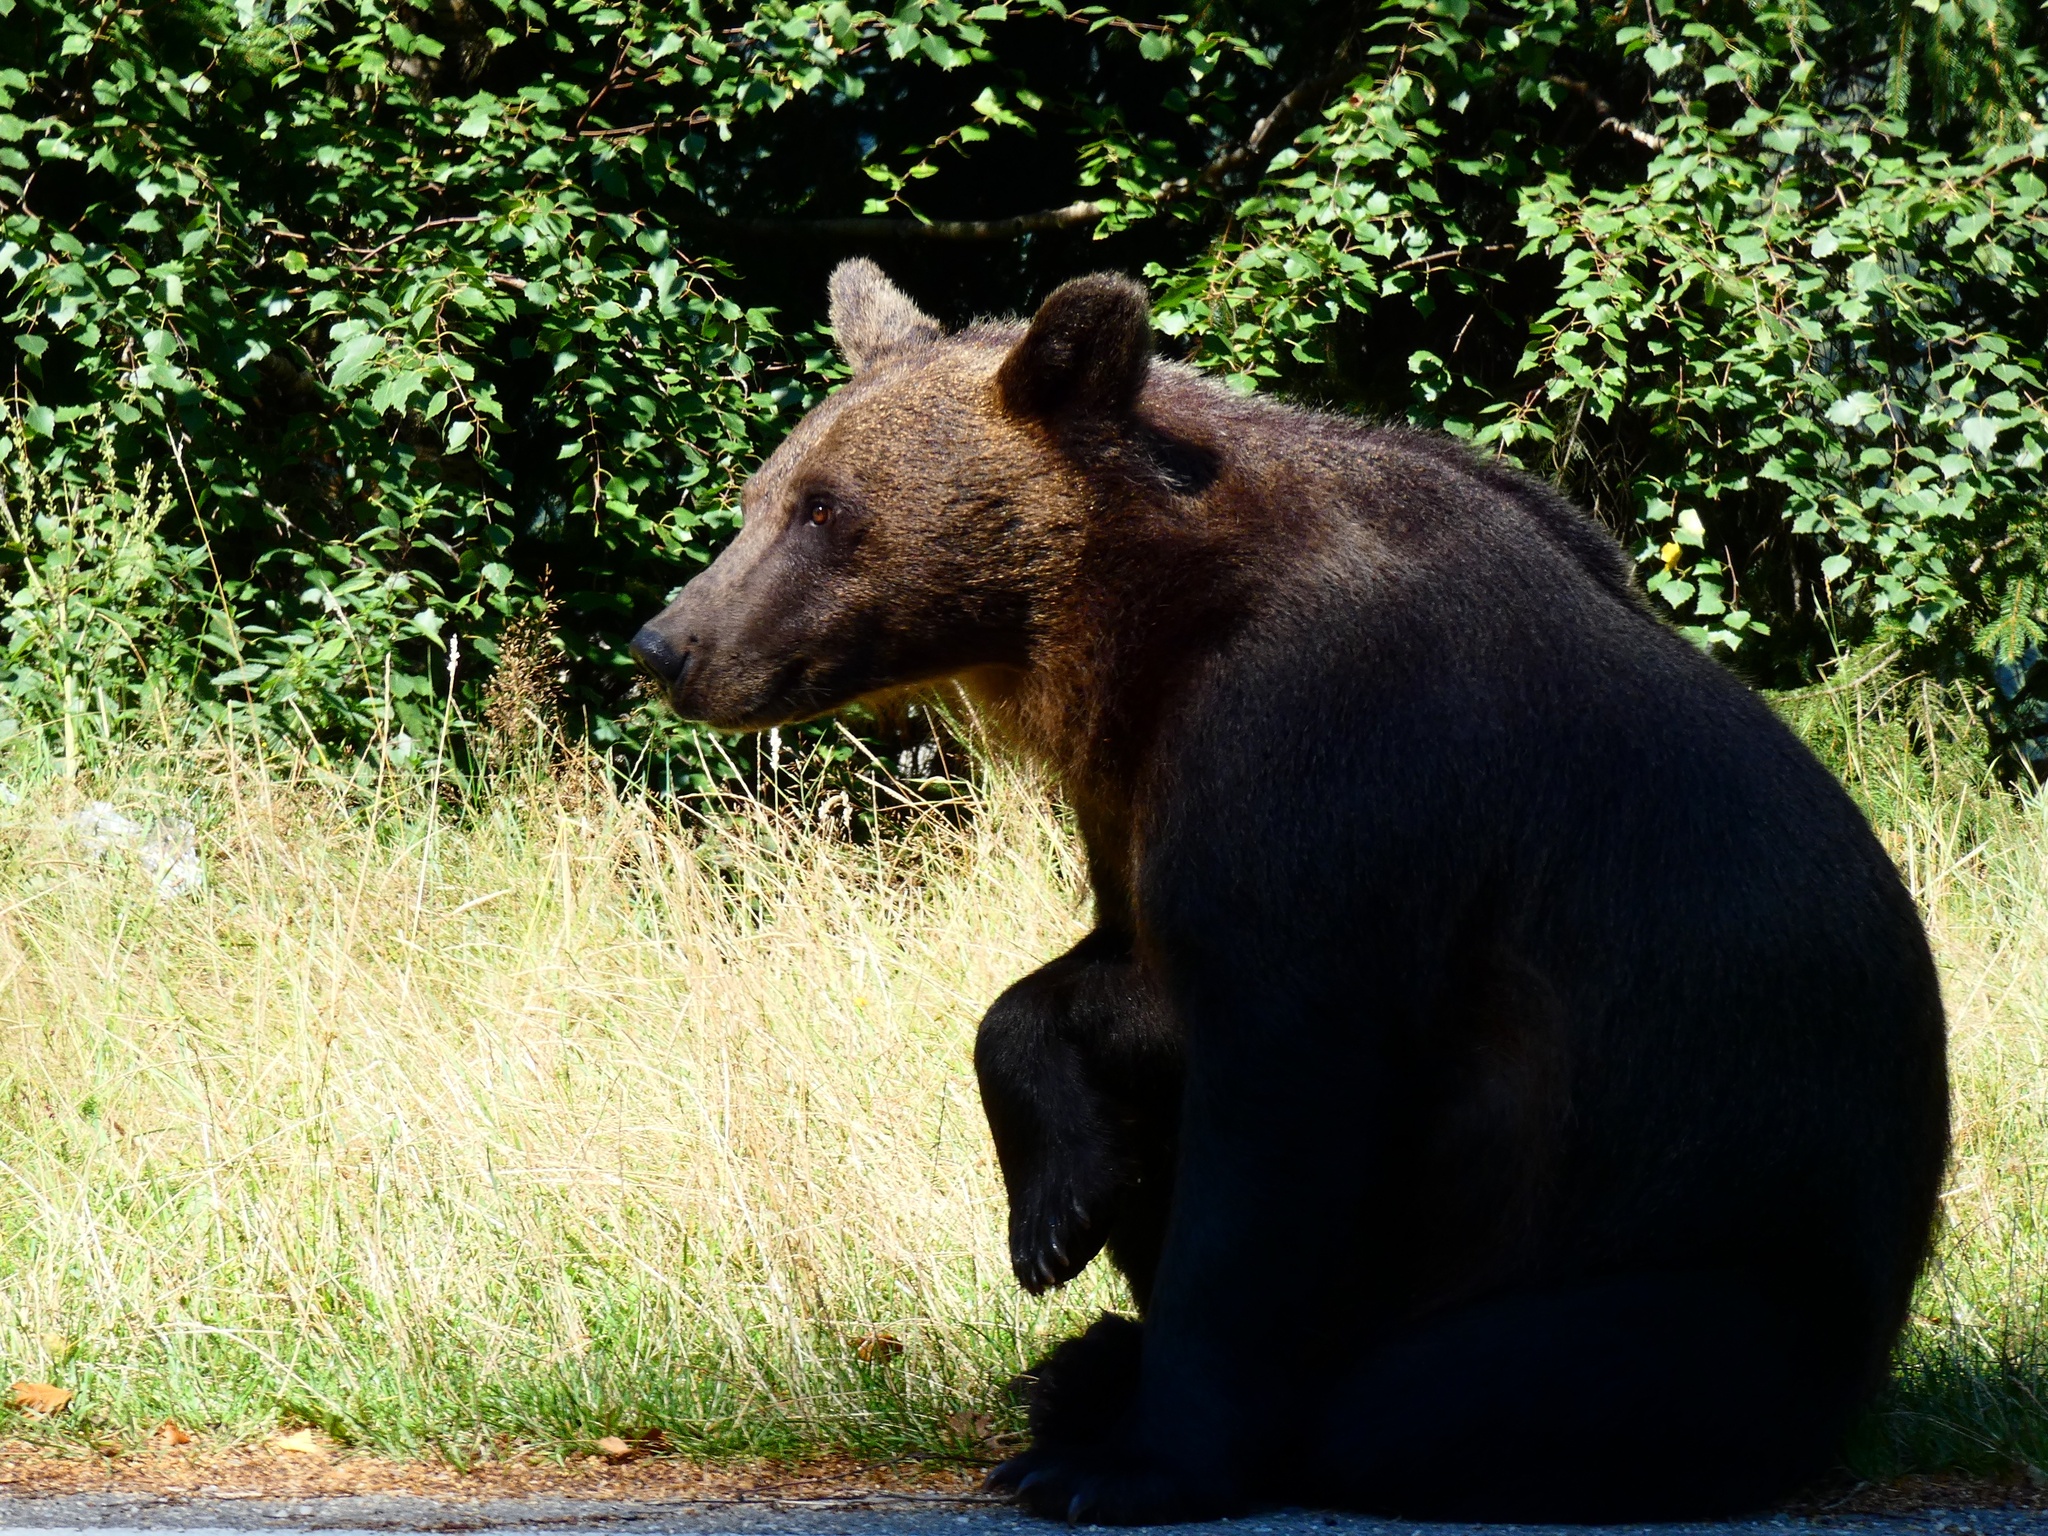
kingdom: Animalia
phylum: Chordata
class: Mammalia
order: Carnivora
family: Ursidae
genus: Ursus
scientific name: Ursus arctos
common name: Brown bear
